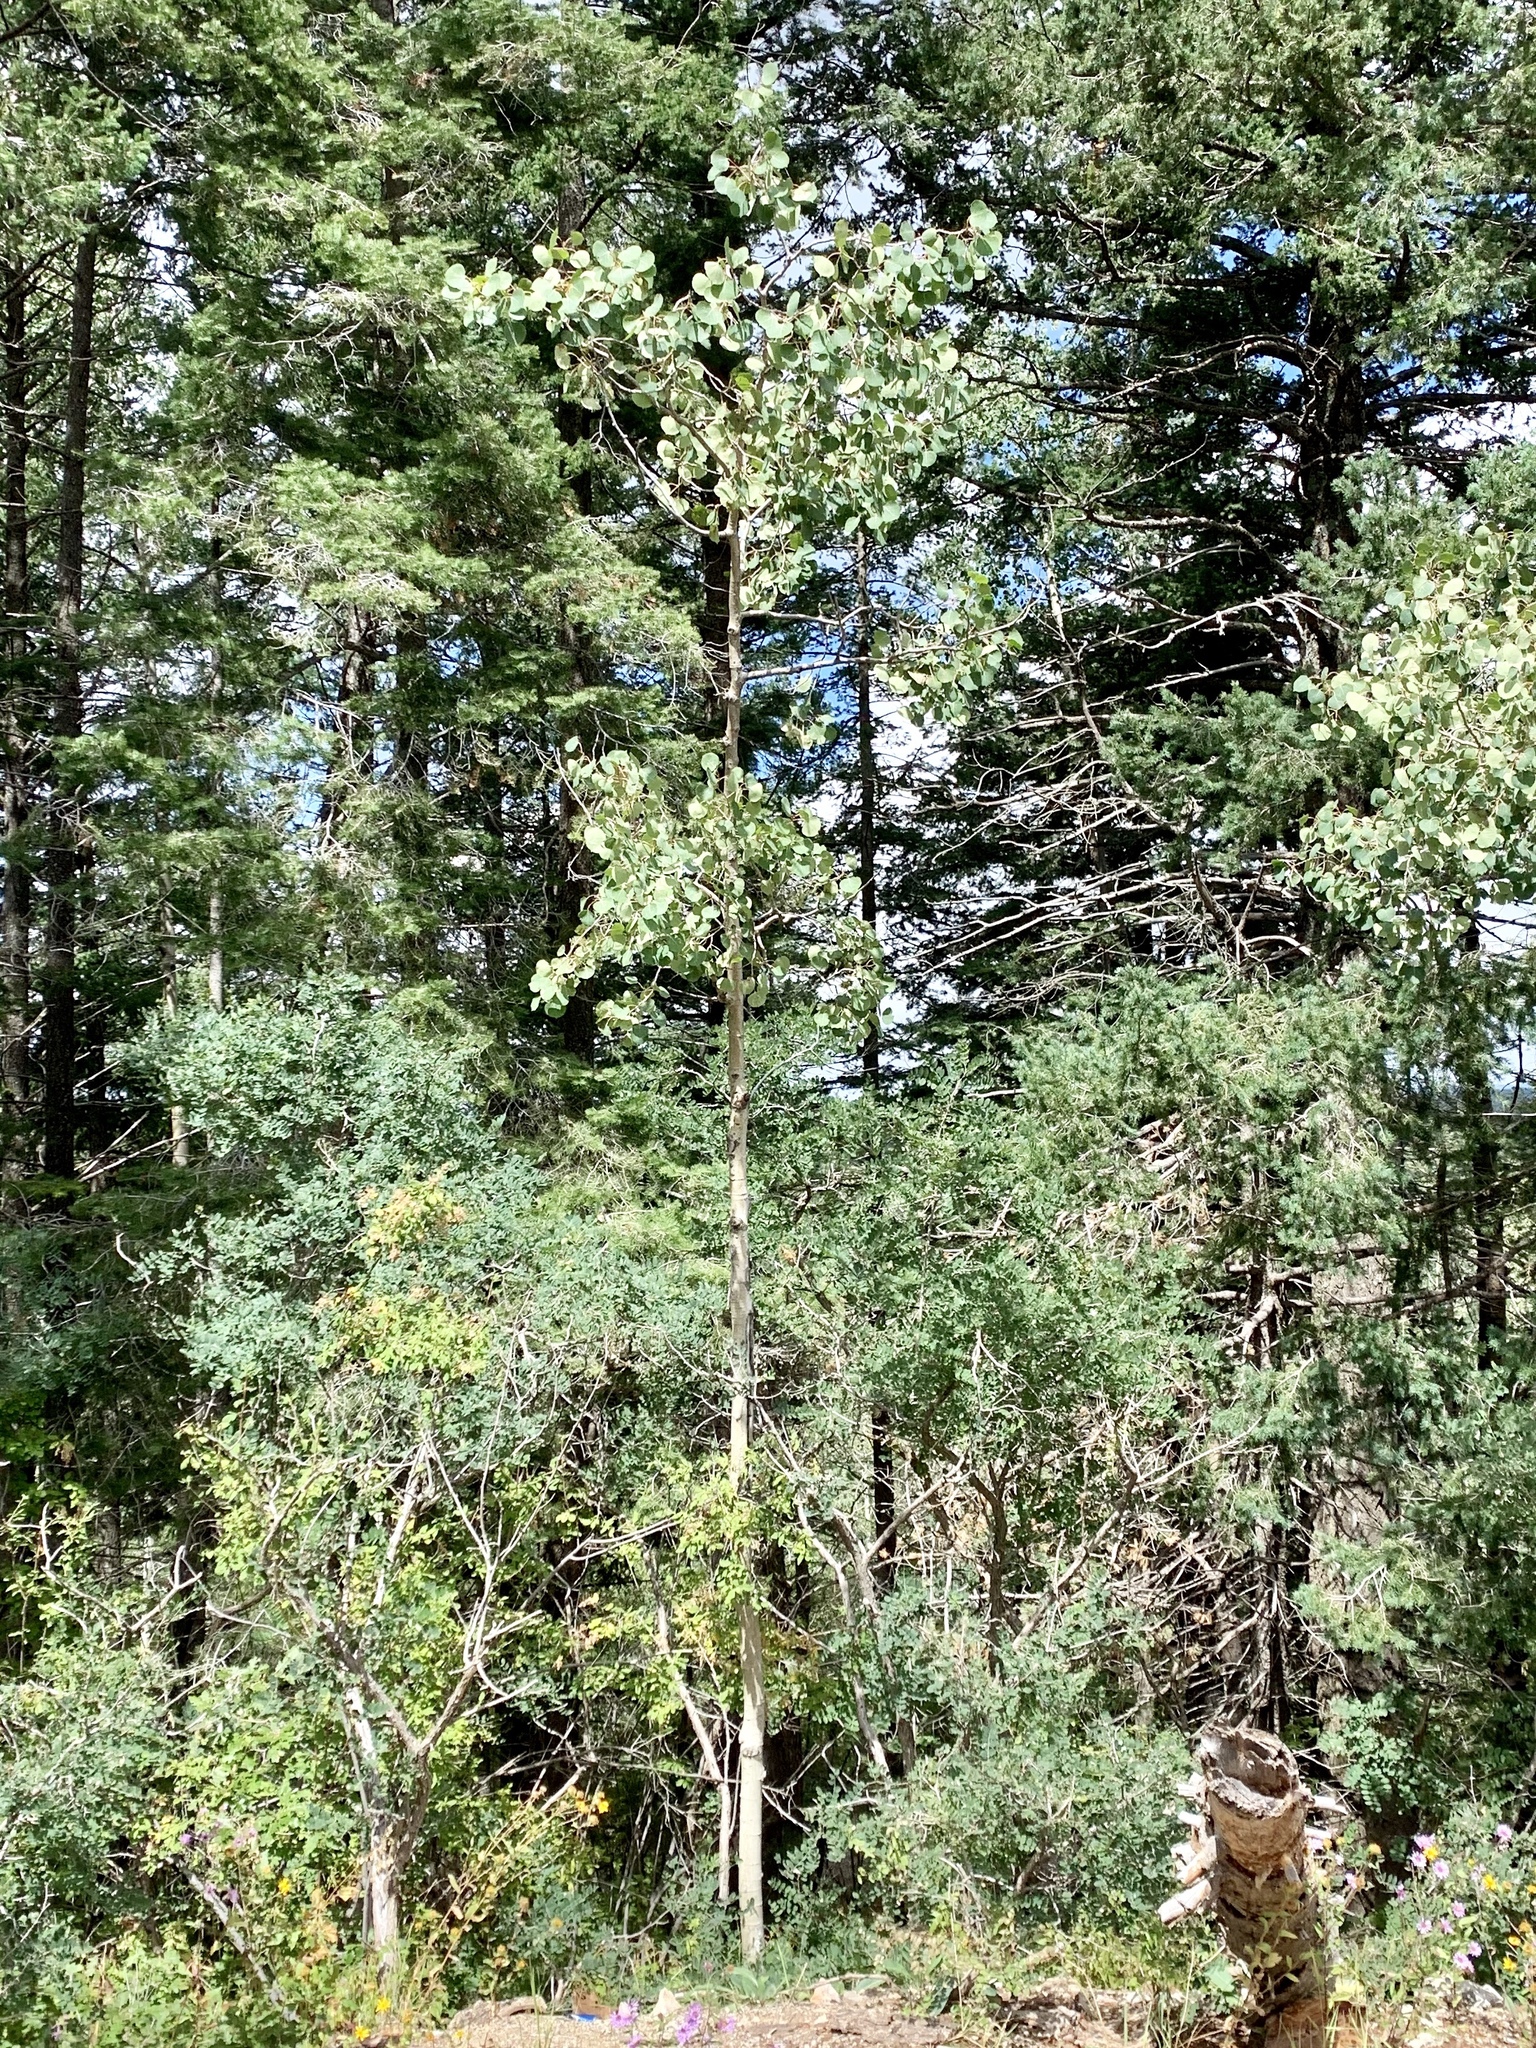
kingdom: Plantae
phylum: Tracheophyta
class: Magnoliopsida
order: Malpighiales
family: Salicaceae
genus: Populus
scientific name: Populus tremuloides
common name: Quaking aspen
